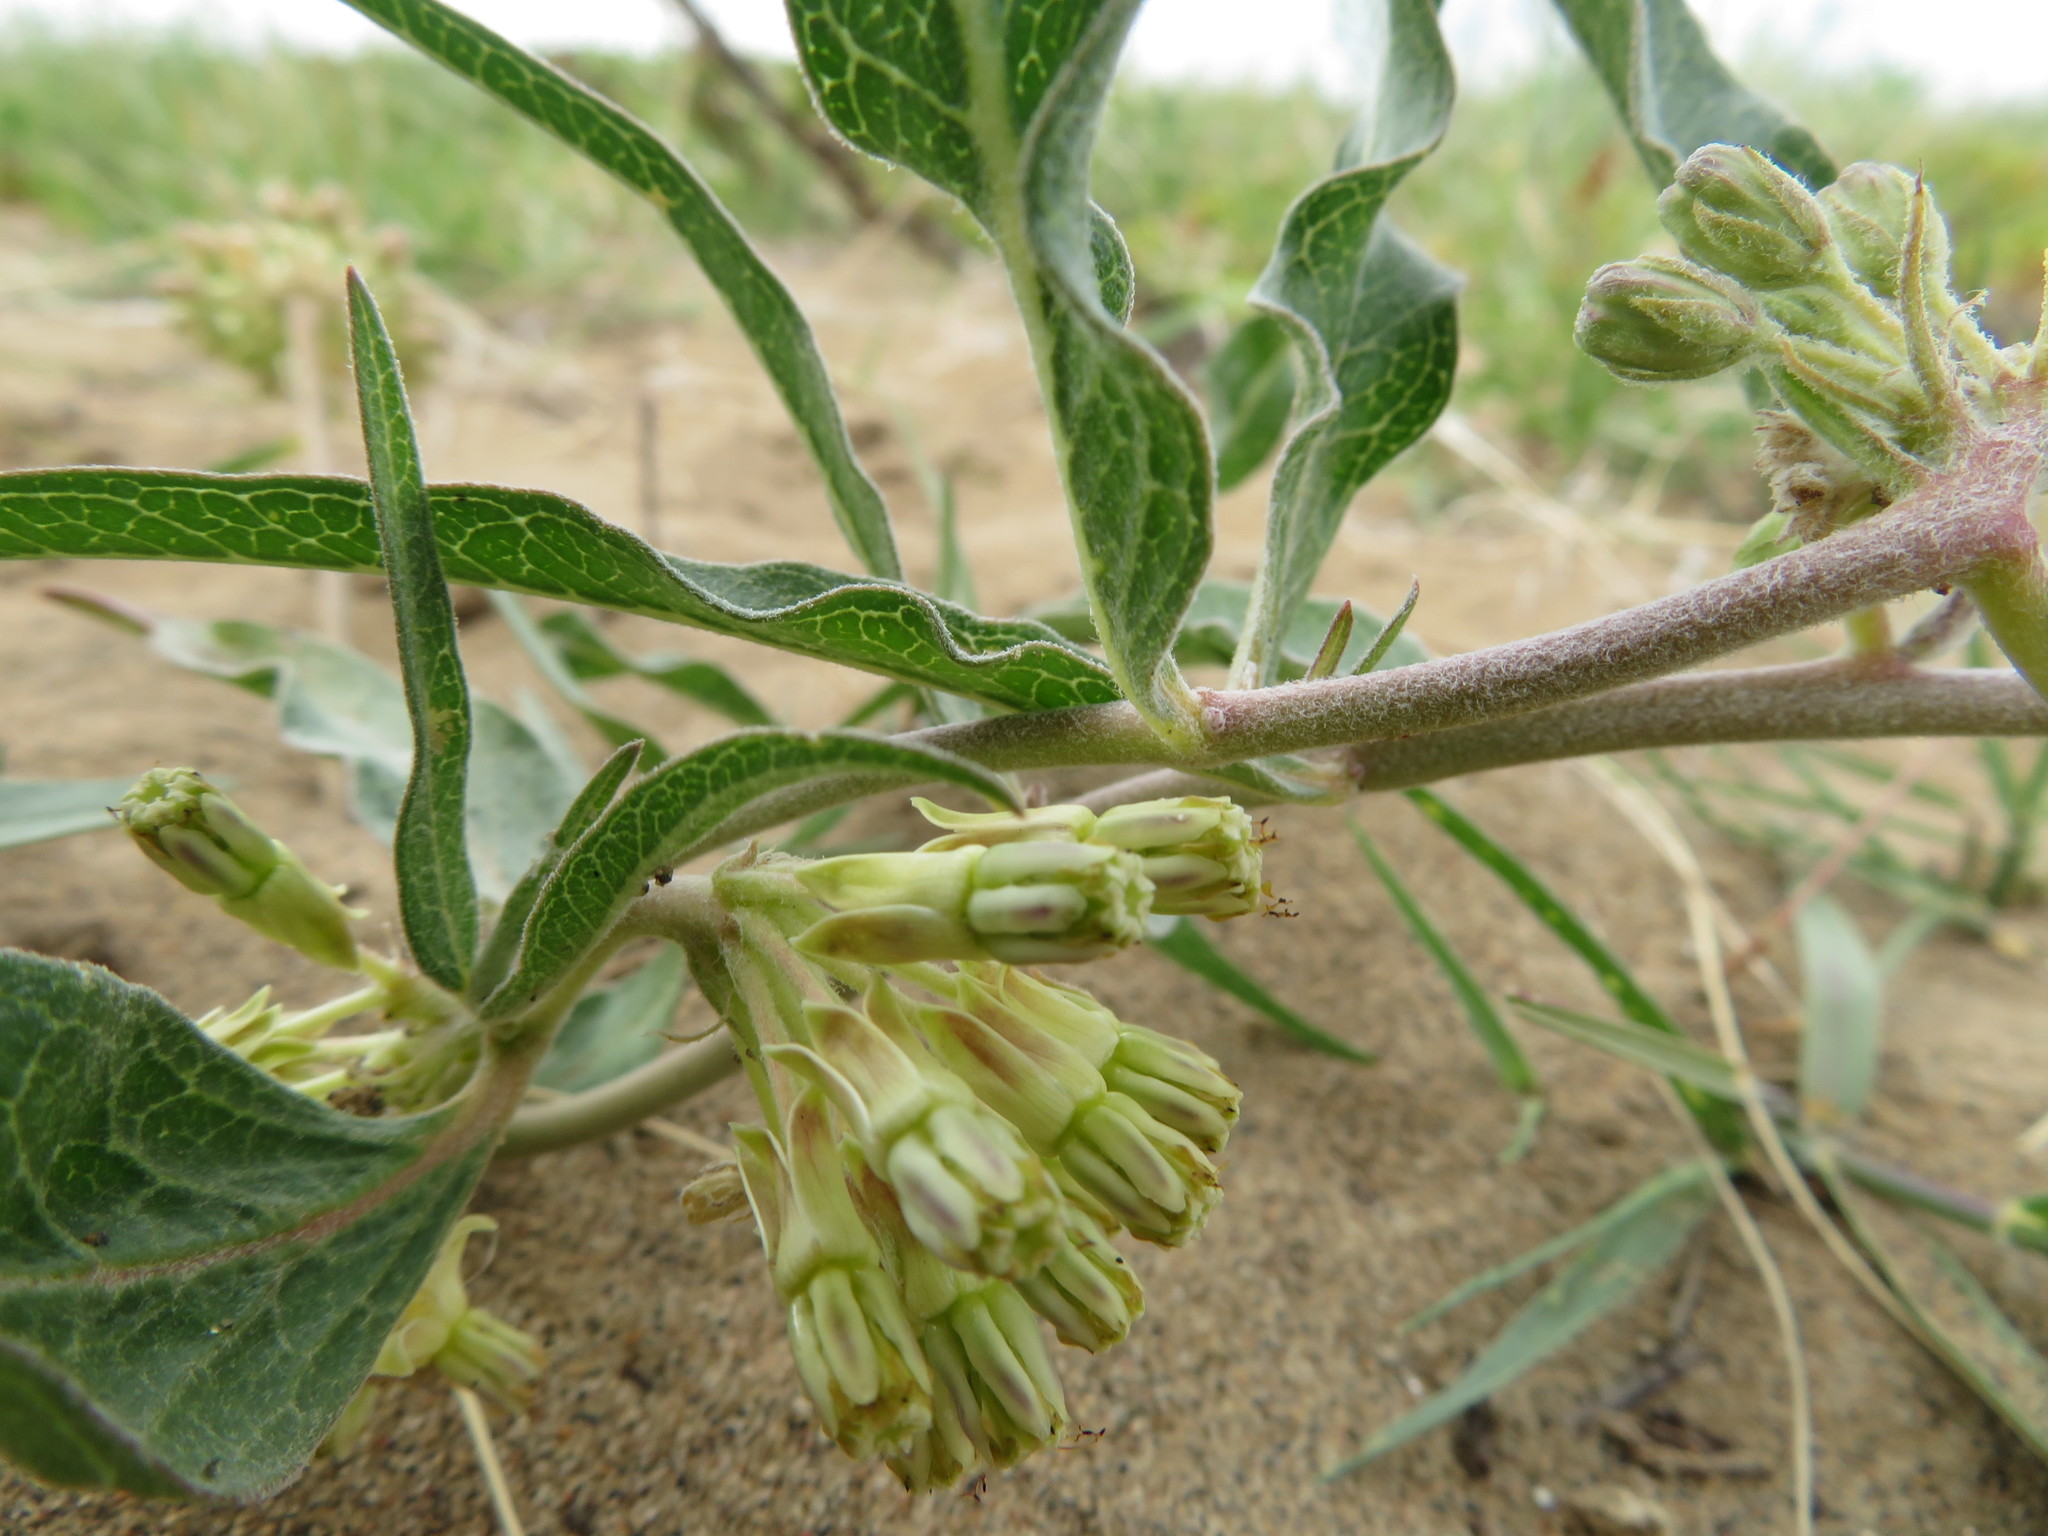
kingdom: Plantae
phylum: Tracheophyta
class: Magnoliopsida
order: Gentianales
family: Apocynaceae
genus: Asclepias
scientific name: Asclepias viridiflora
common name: Green comet milkweed
